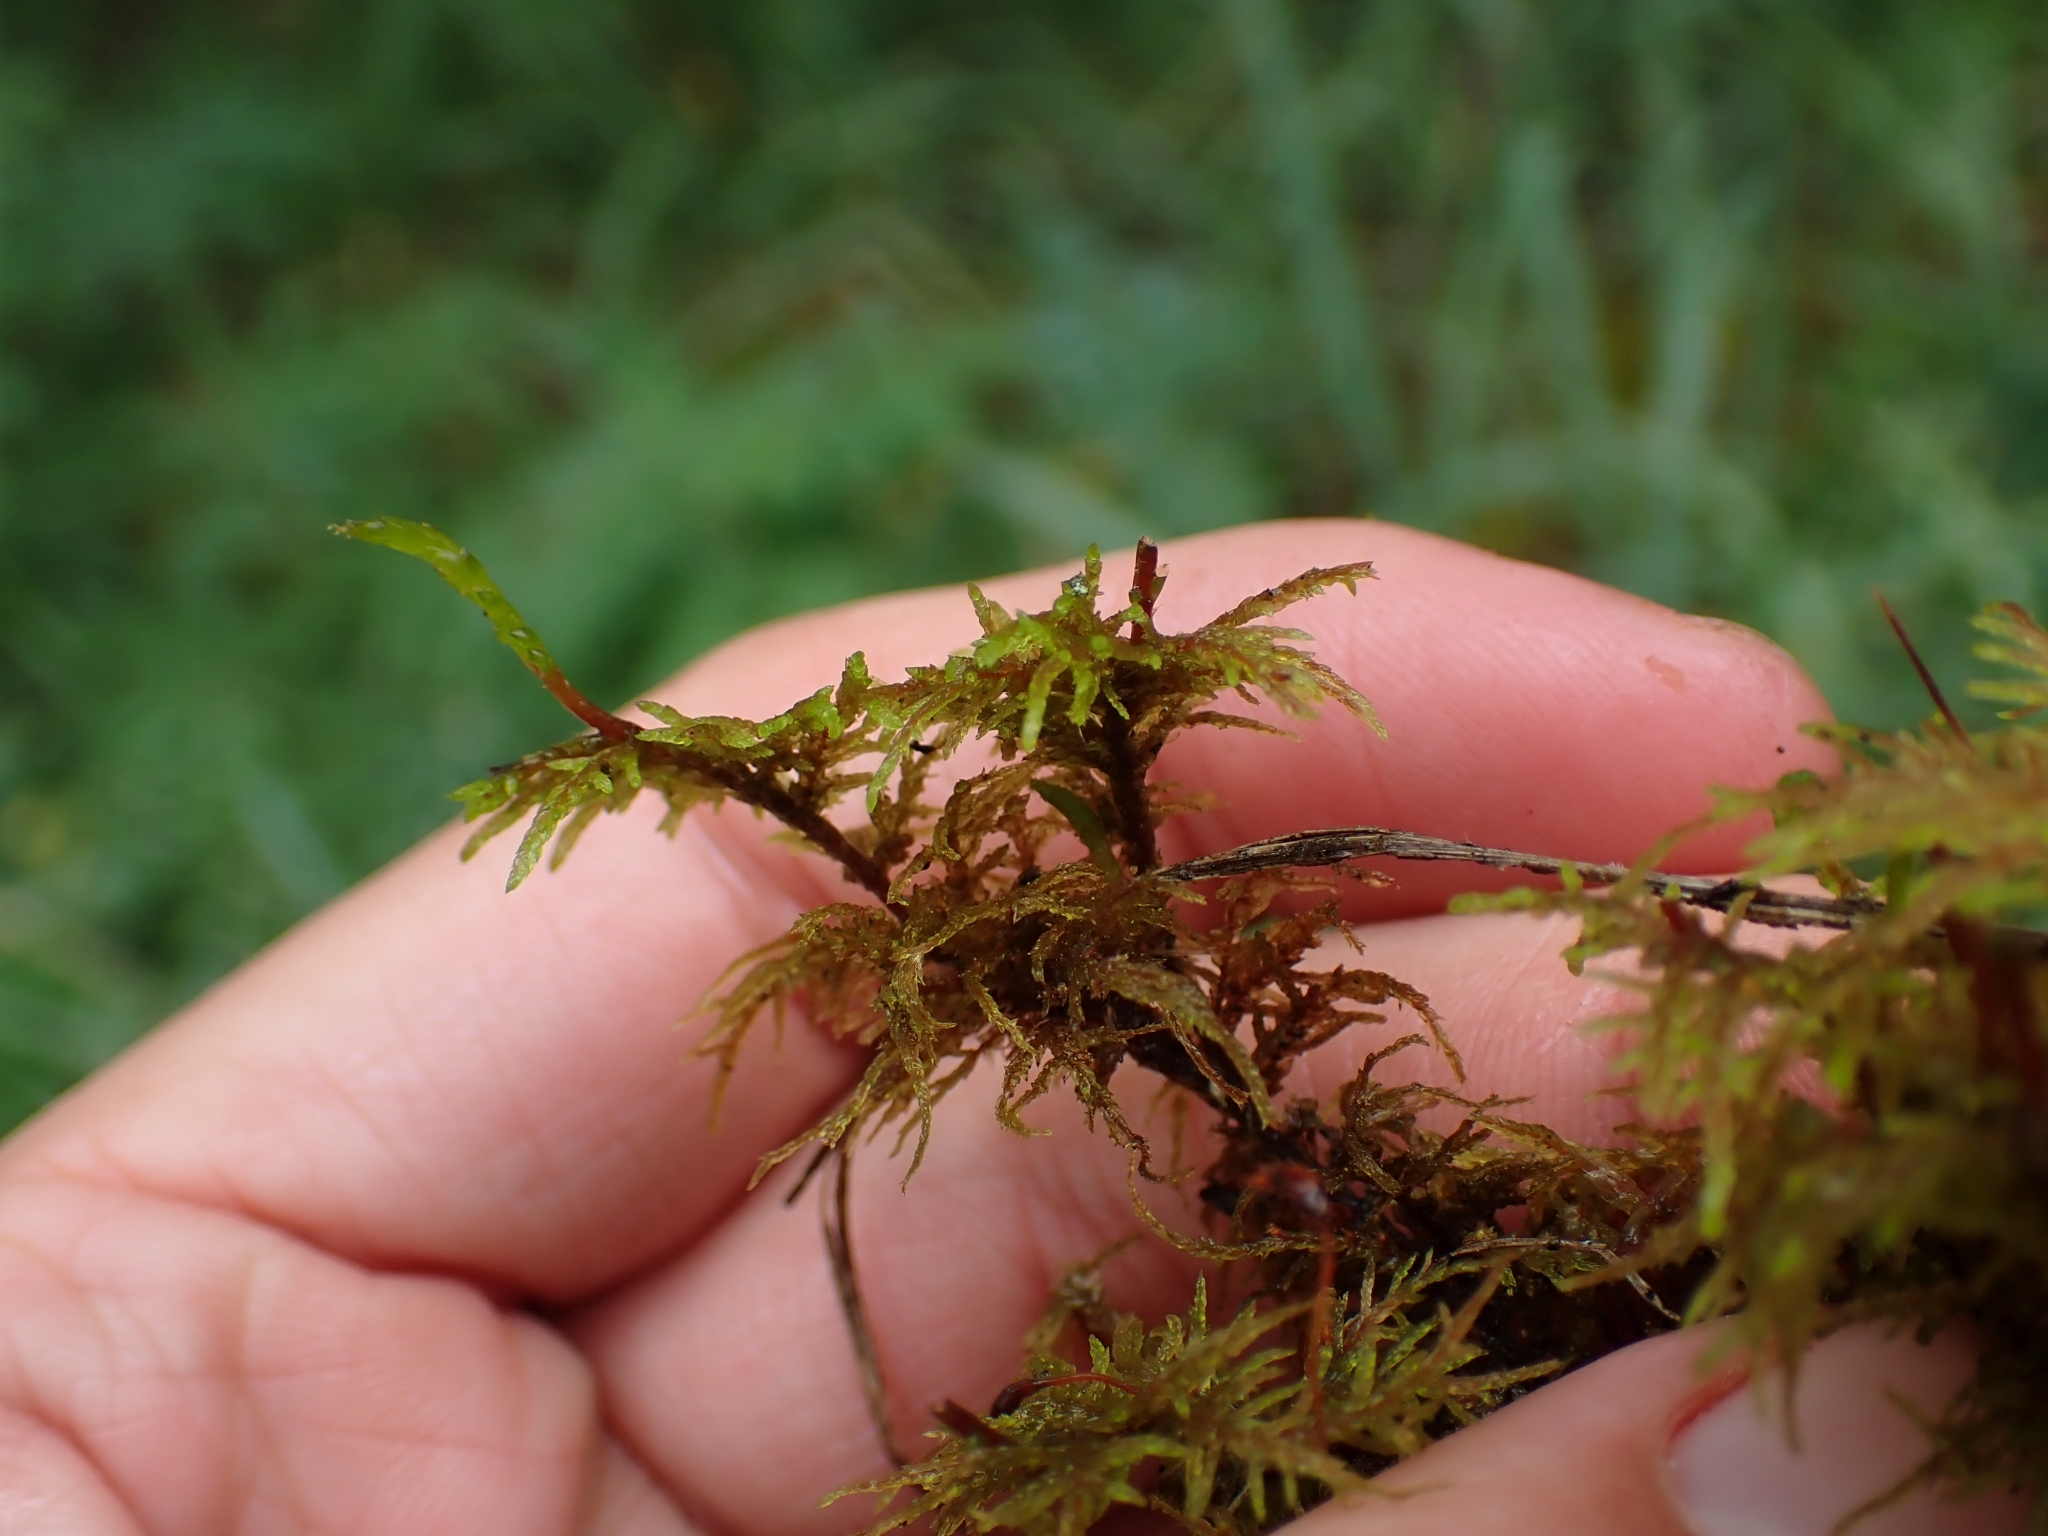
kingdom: Plantae
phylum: Bryophyta
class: Bryopsida
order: Hypnales
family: Hylocomiaceae
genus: Hylocomium
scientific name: Hylocomium splendens
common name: Stairstep moss
